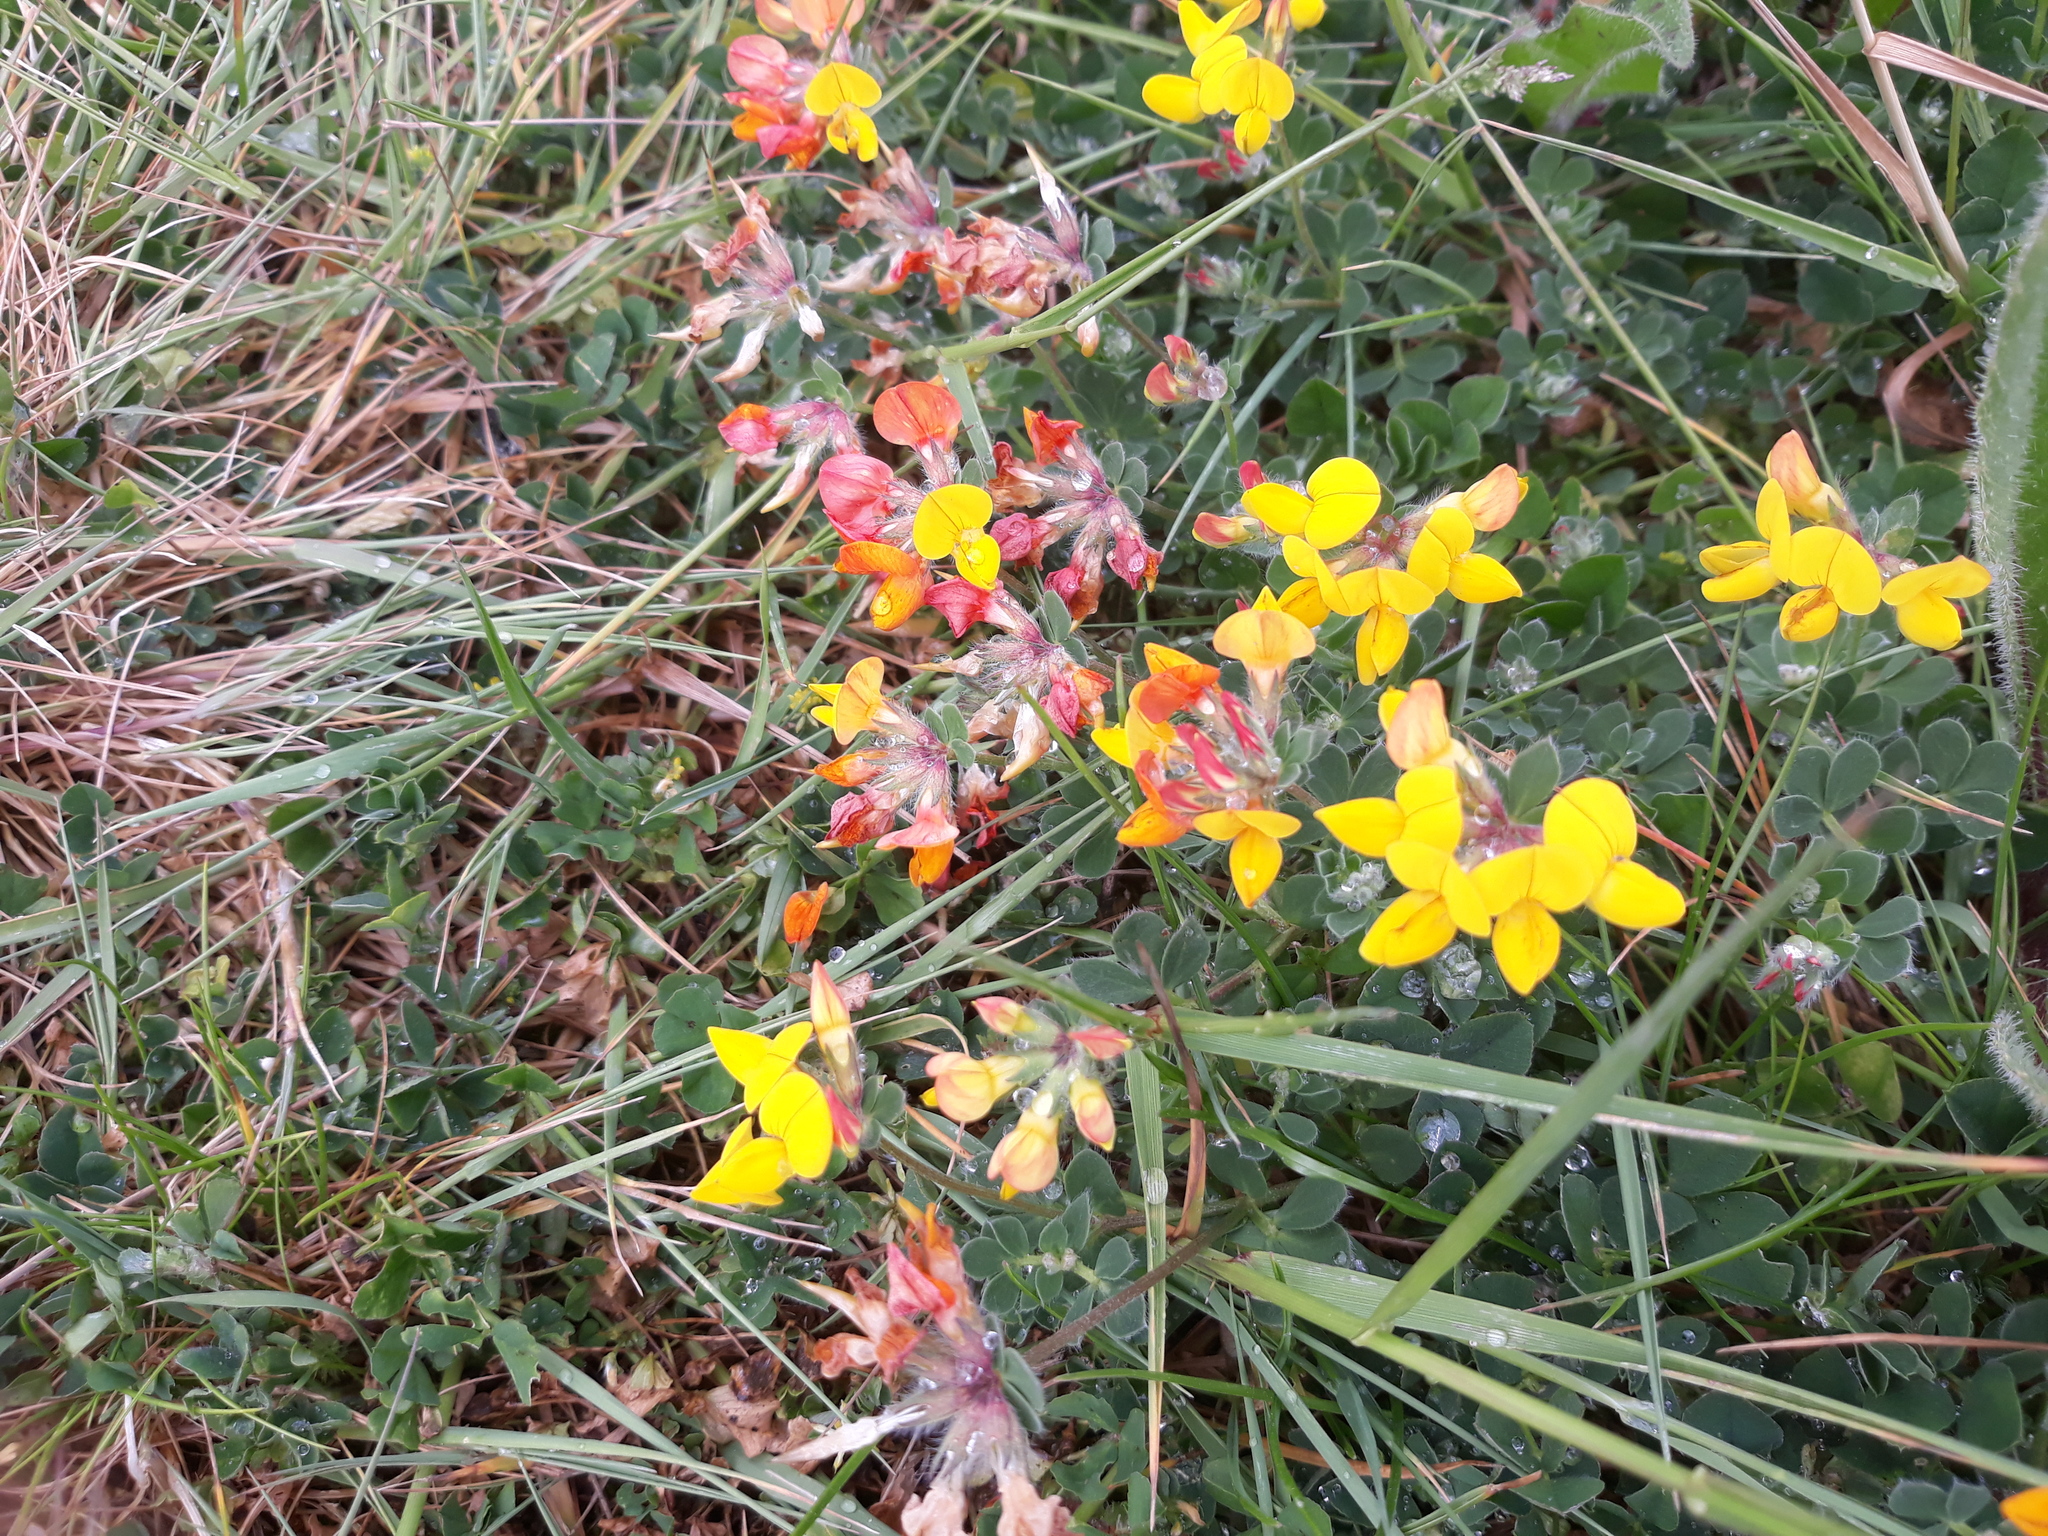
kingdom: Plantae
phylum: Tracheophyta
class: Magnoliopsida
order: Fabales
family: Fabaceae
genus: Lotus
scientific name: Lotus corniculatus
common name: Common bird's-foot-trefoil
